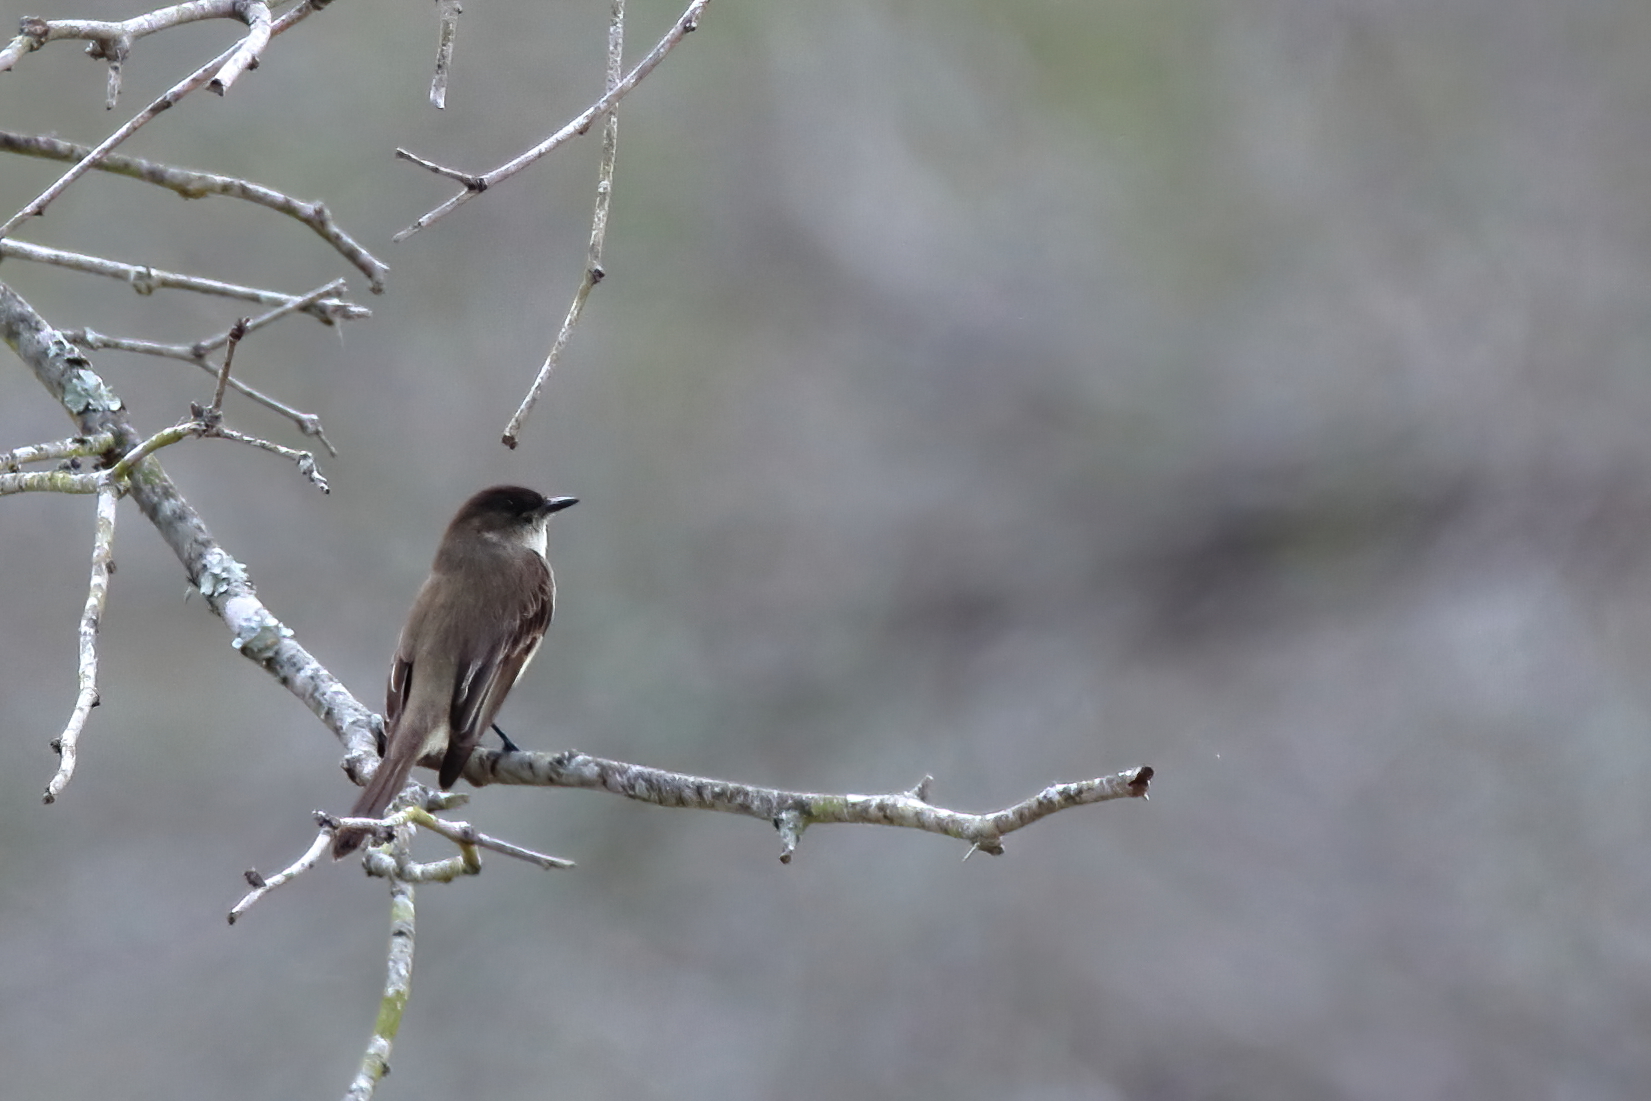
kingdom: Animalia
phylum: Chordata
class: Aves
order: Passeriformes
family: Tyrannidae
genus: Sayornis
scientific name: Sayornis phoebe
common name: Eastern phoebe
